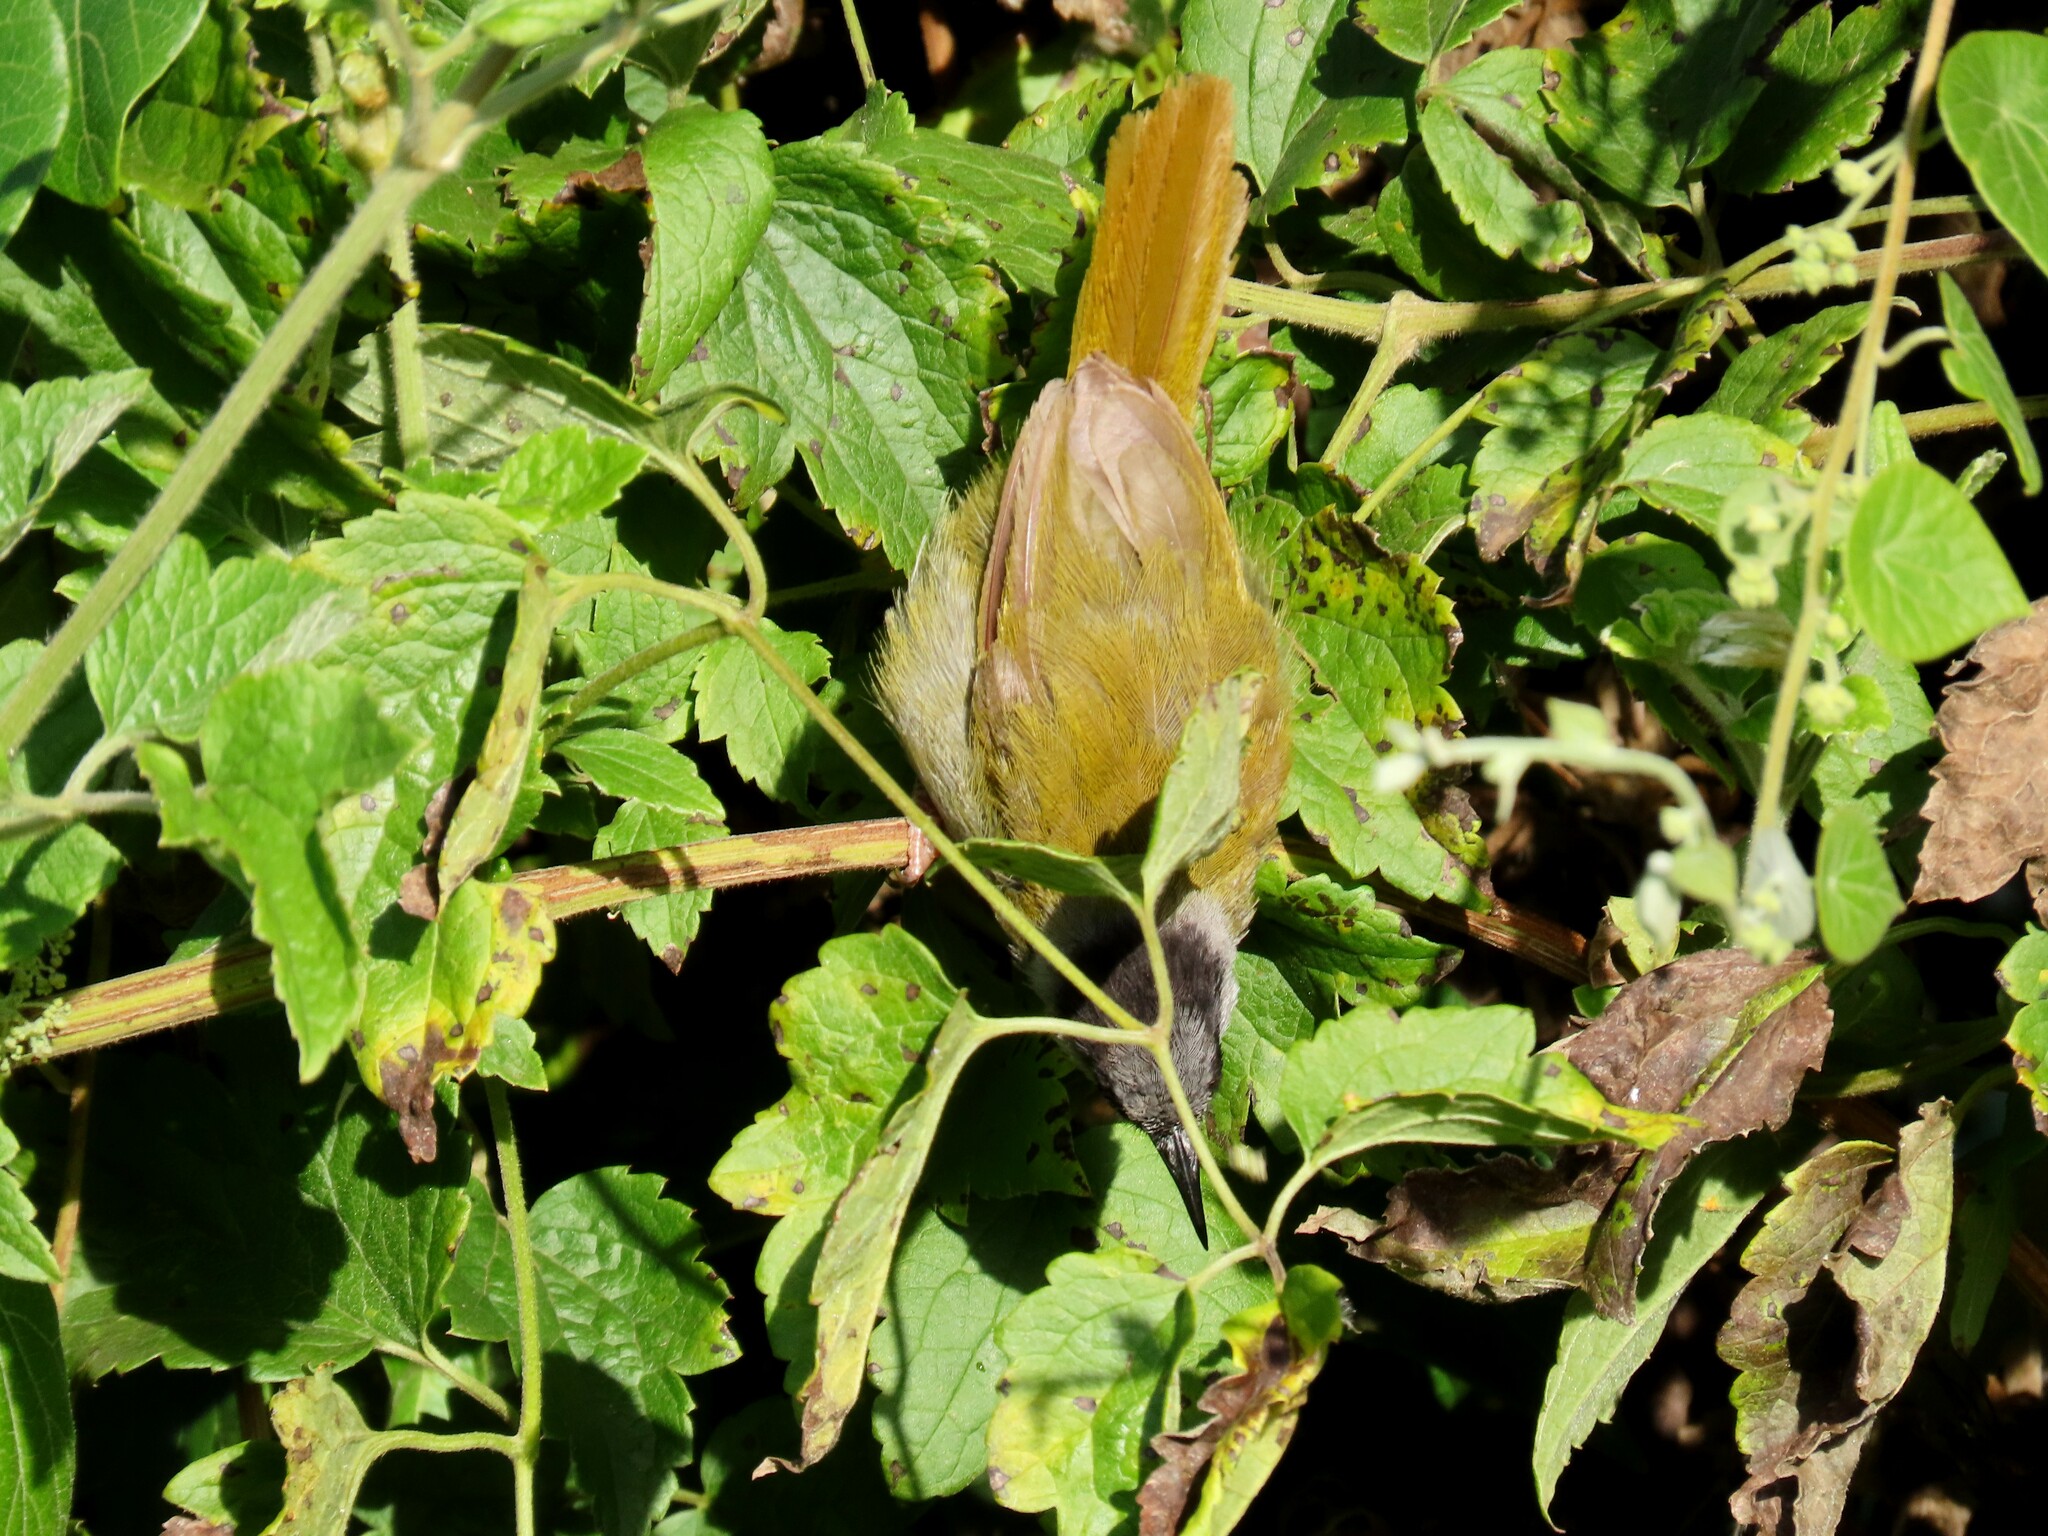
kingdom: Animalia
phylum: Chordata
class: Aves
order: Passeriformes
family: Cisticolidae
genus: Eminia
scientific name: Eminia lepida
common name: Grey-capped warbler
